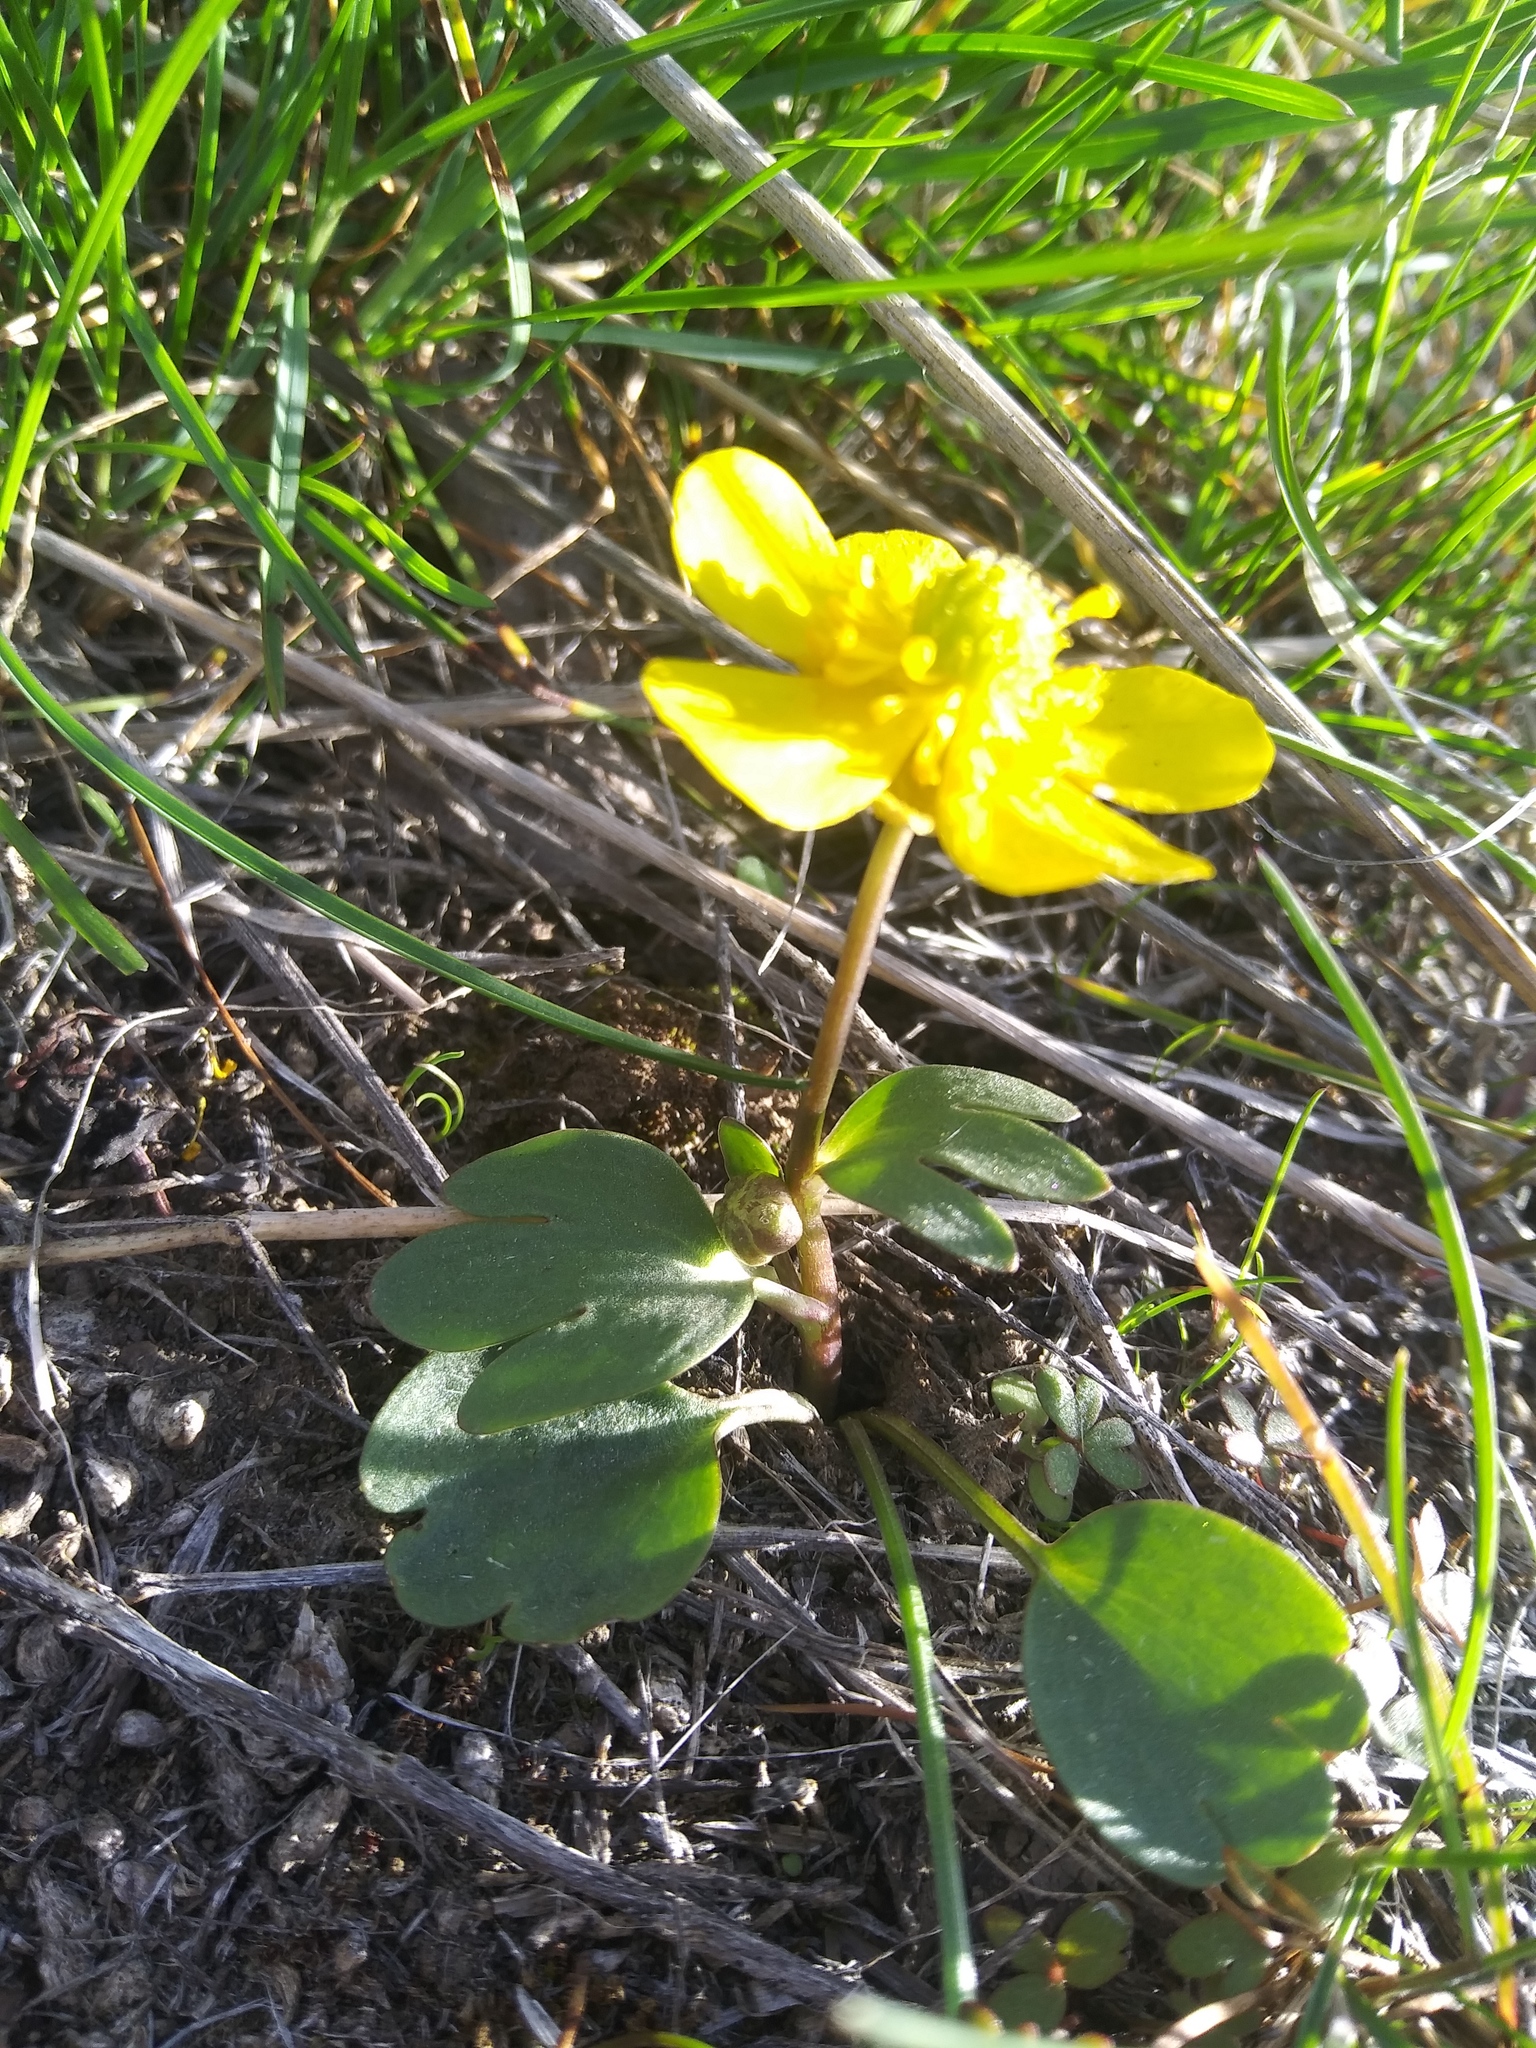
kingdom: Plantae
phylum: Tracheophyta
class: Magnoliopsida
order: Ranunculales
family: Ranunculaceae
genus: Ranunculus
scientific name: Ranunculus glaberrimus
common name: Sagebrush buttercup
